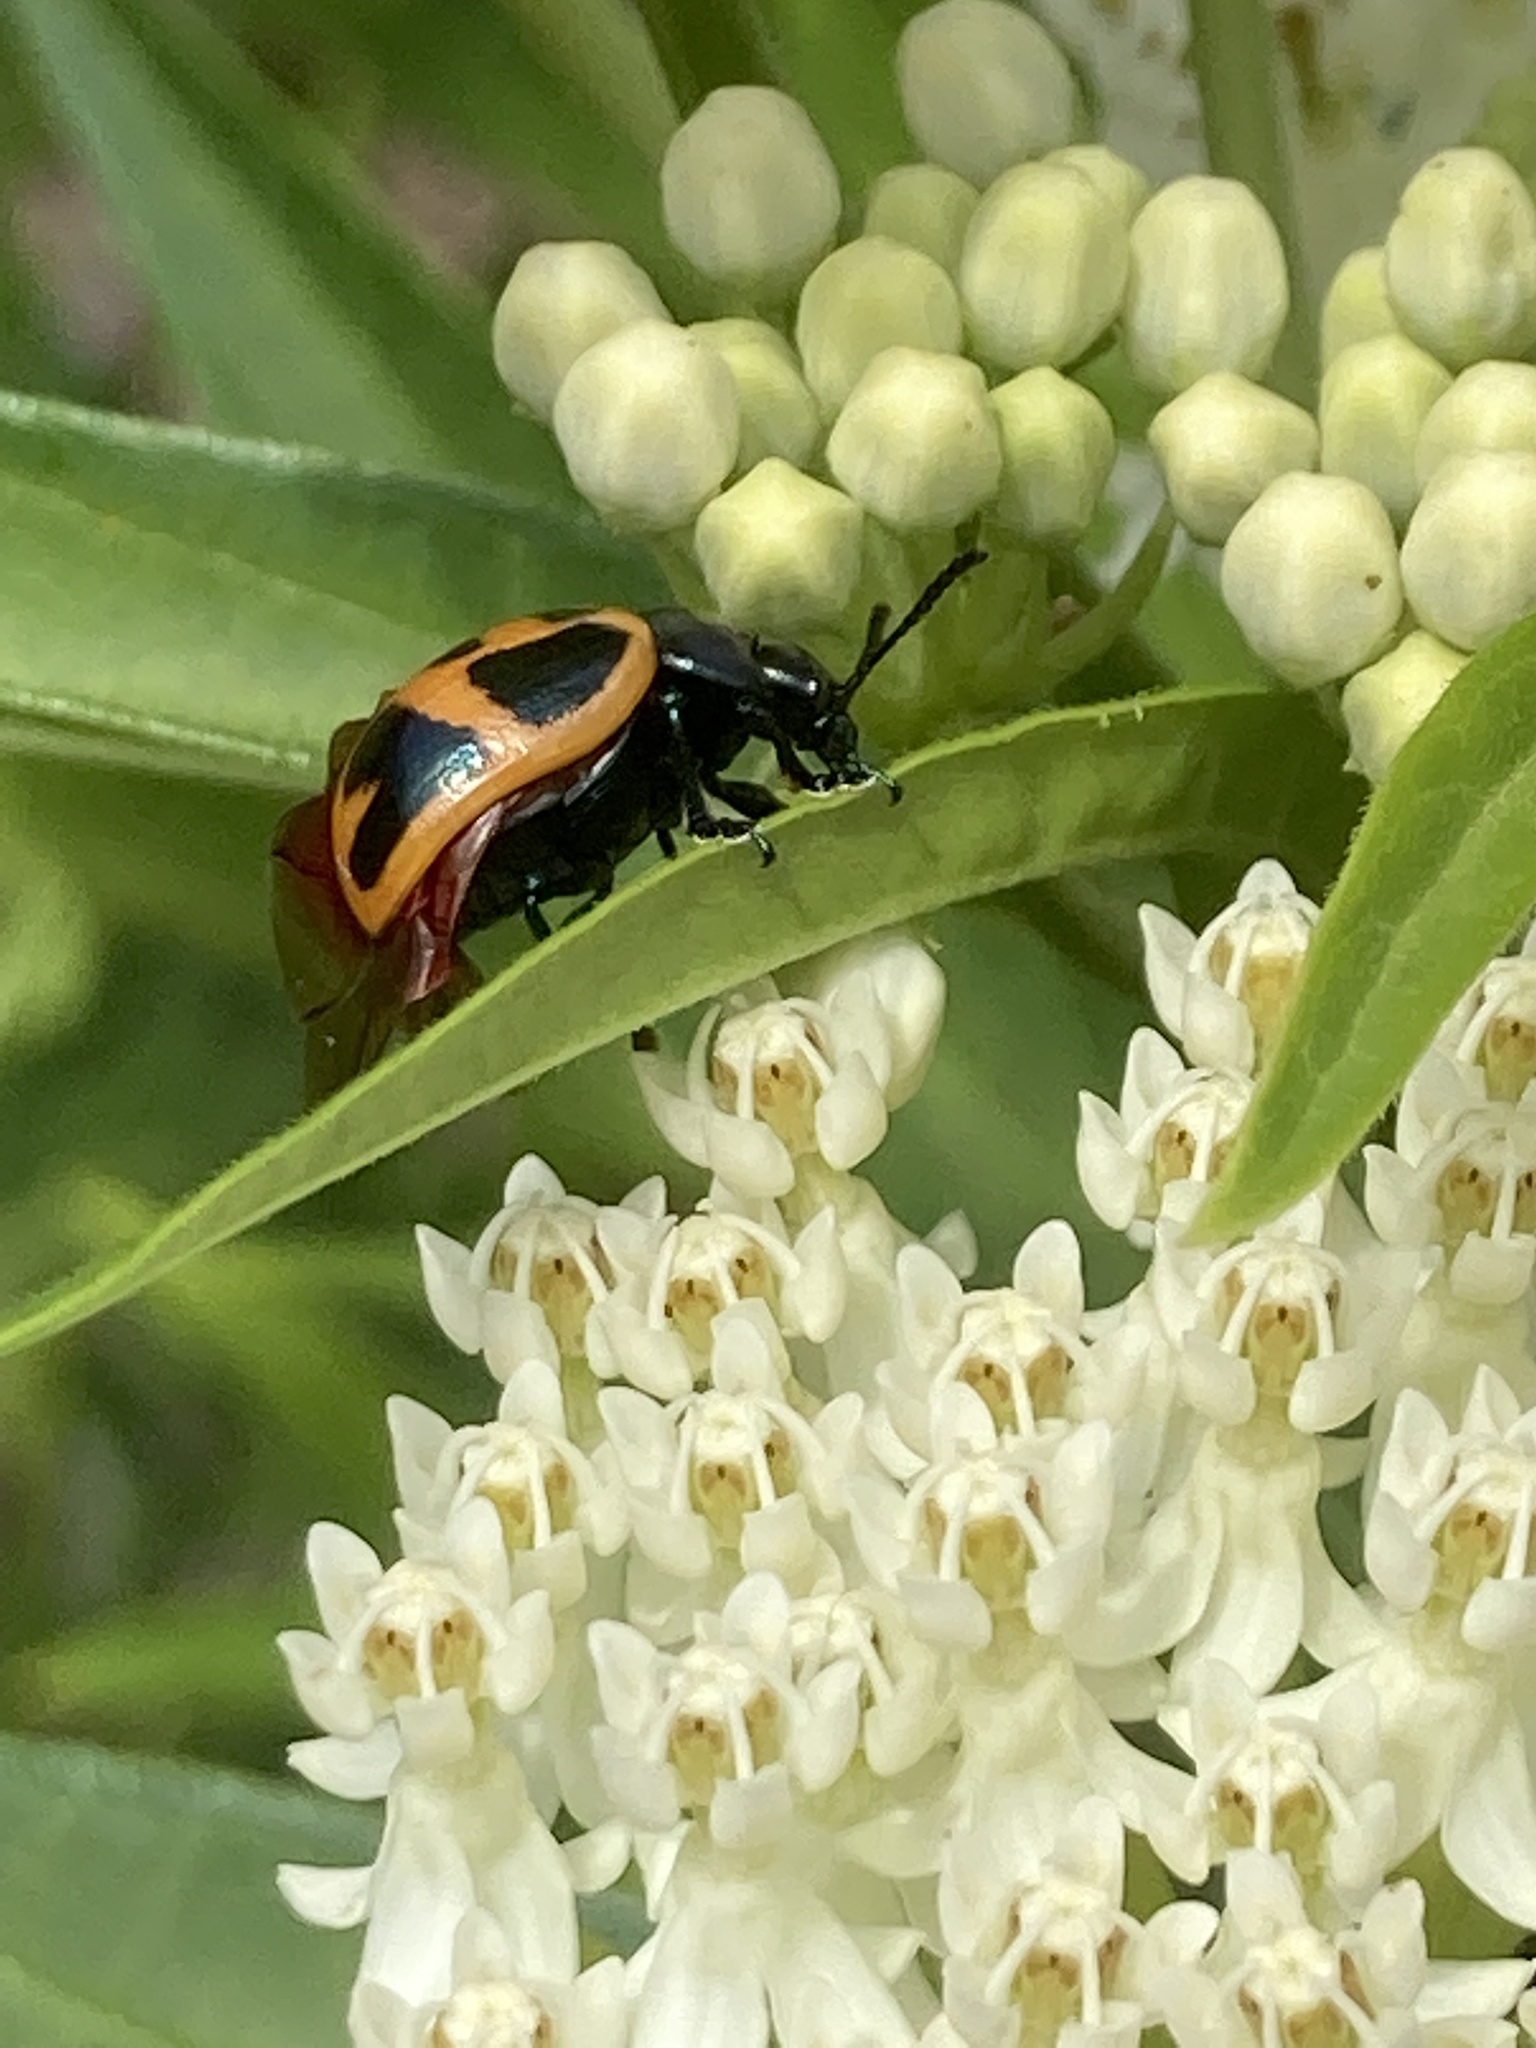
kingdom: Animalia
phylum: Arthropoda
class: Insecta
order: Coleoptera
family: Chrysomelidae
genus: Labidomera
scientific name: Labidomera clivicollis
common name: Swamp milkweed leaf beetle
